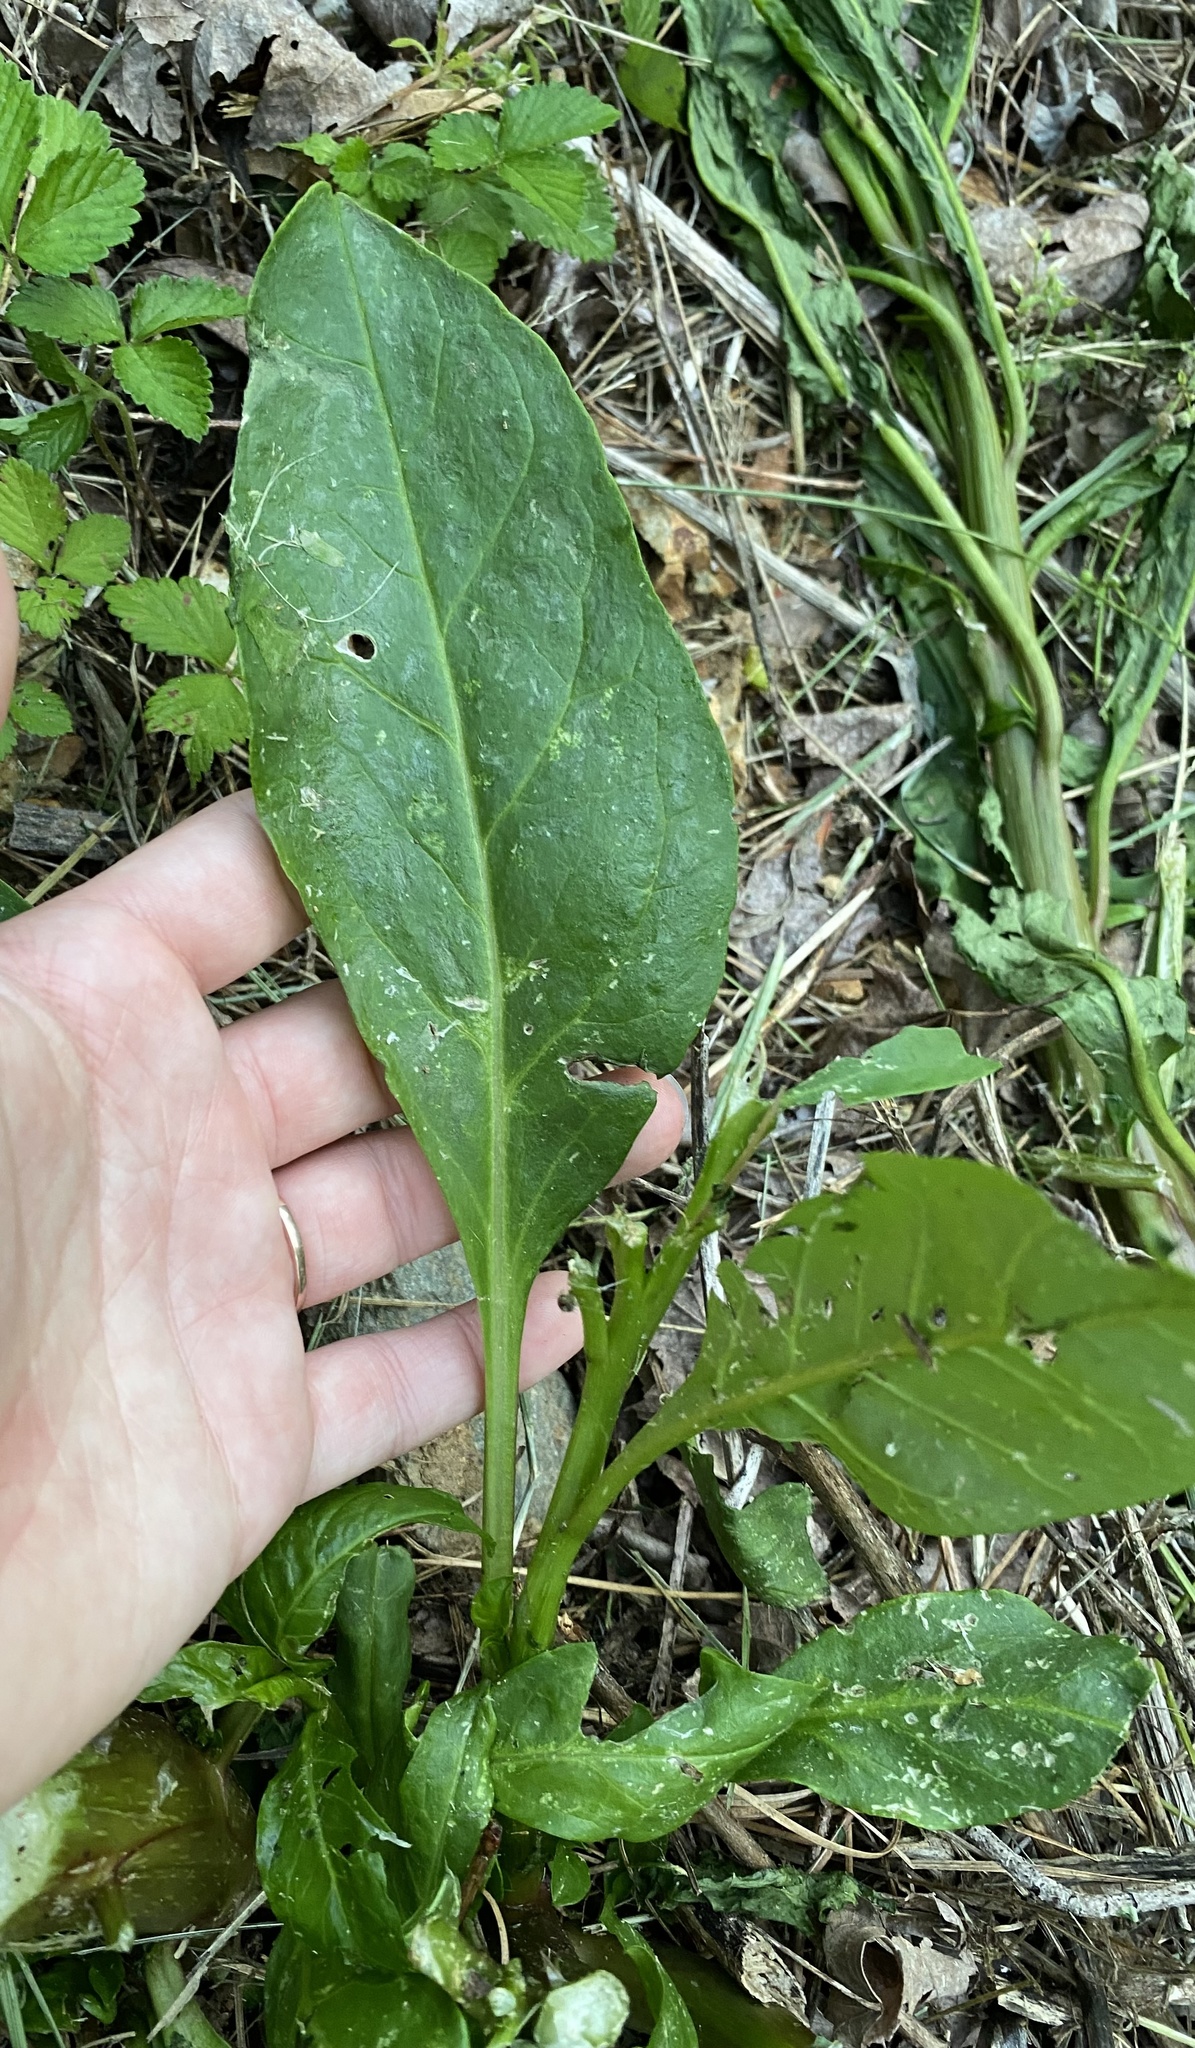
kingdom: Plantae
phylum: Tracheophyta
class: Magnoliopsida
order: Caryophyllales
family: Phytolaccaceae
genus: Phytolacca
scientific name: Phytolacca americana
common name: American pokeweed
